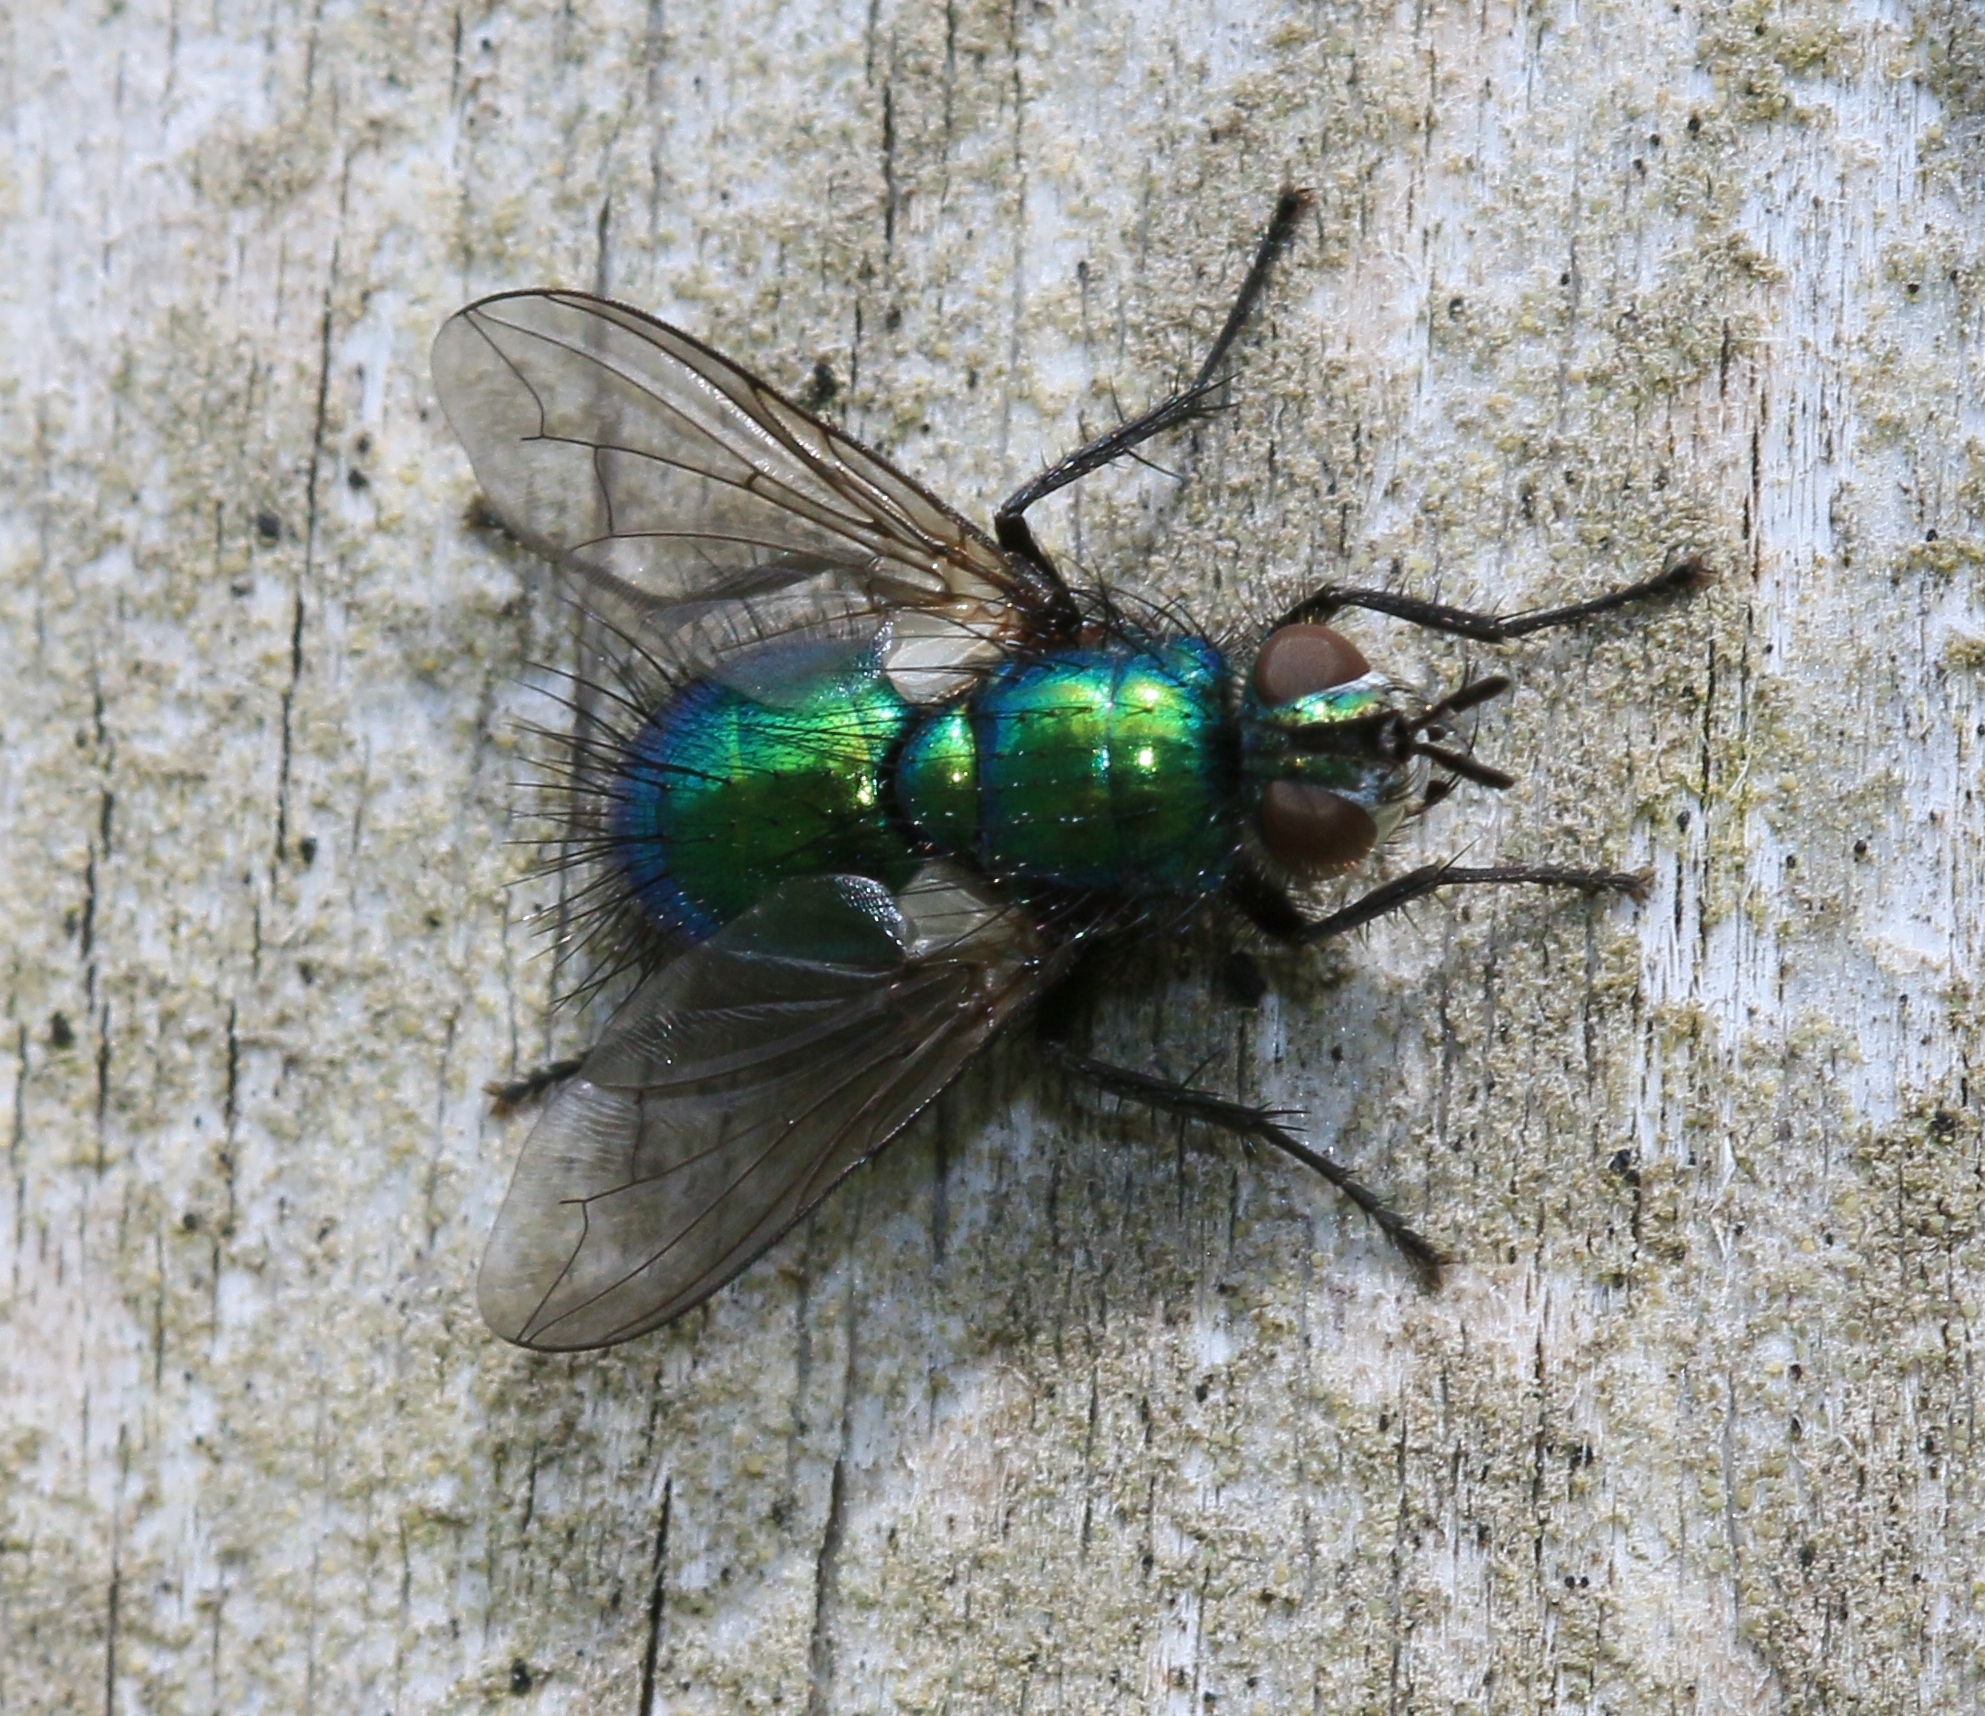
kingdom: Animalia
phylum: Arthropoda
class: Insecta
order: Diptera
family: Tachinidae
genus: Gymnocheta
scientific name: Gymnocheta viridis
